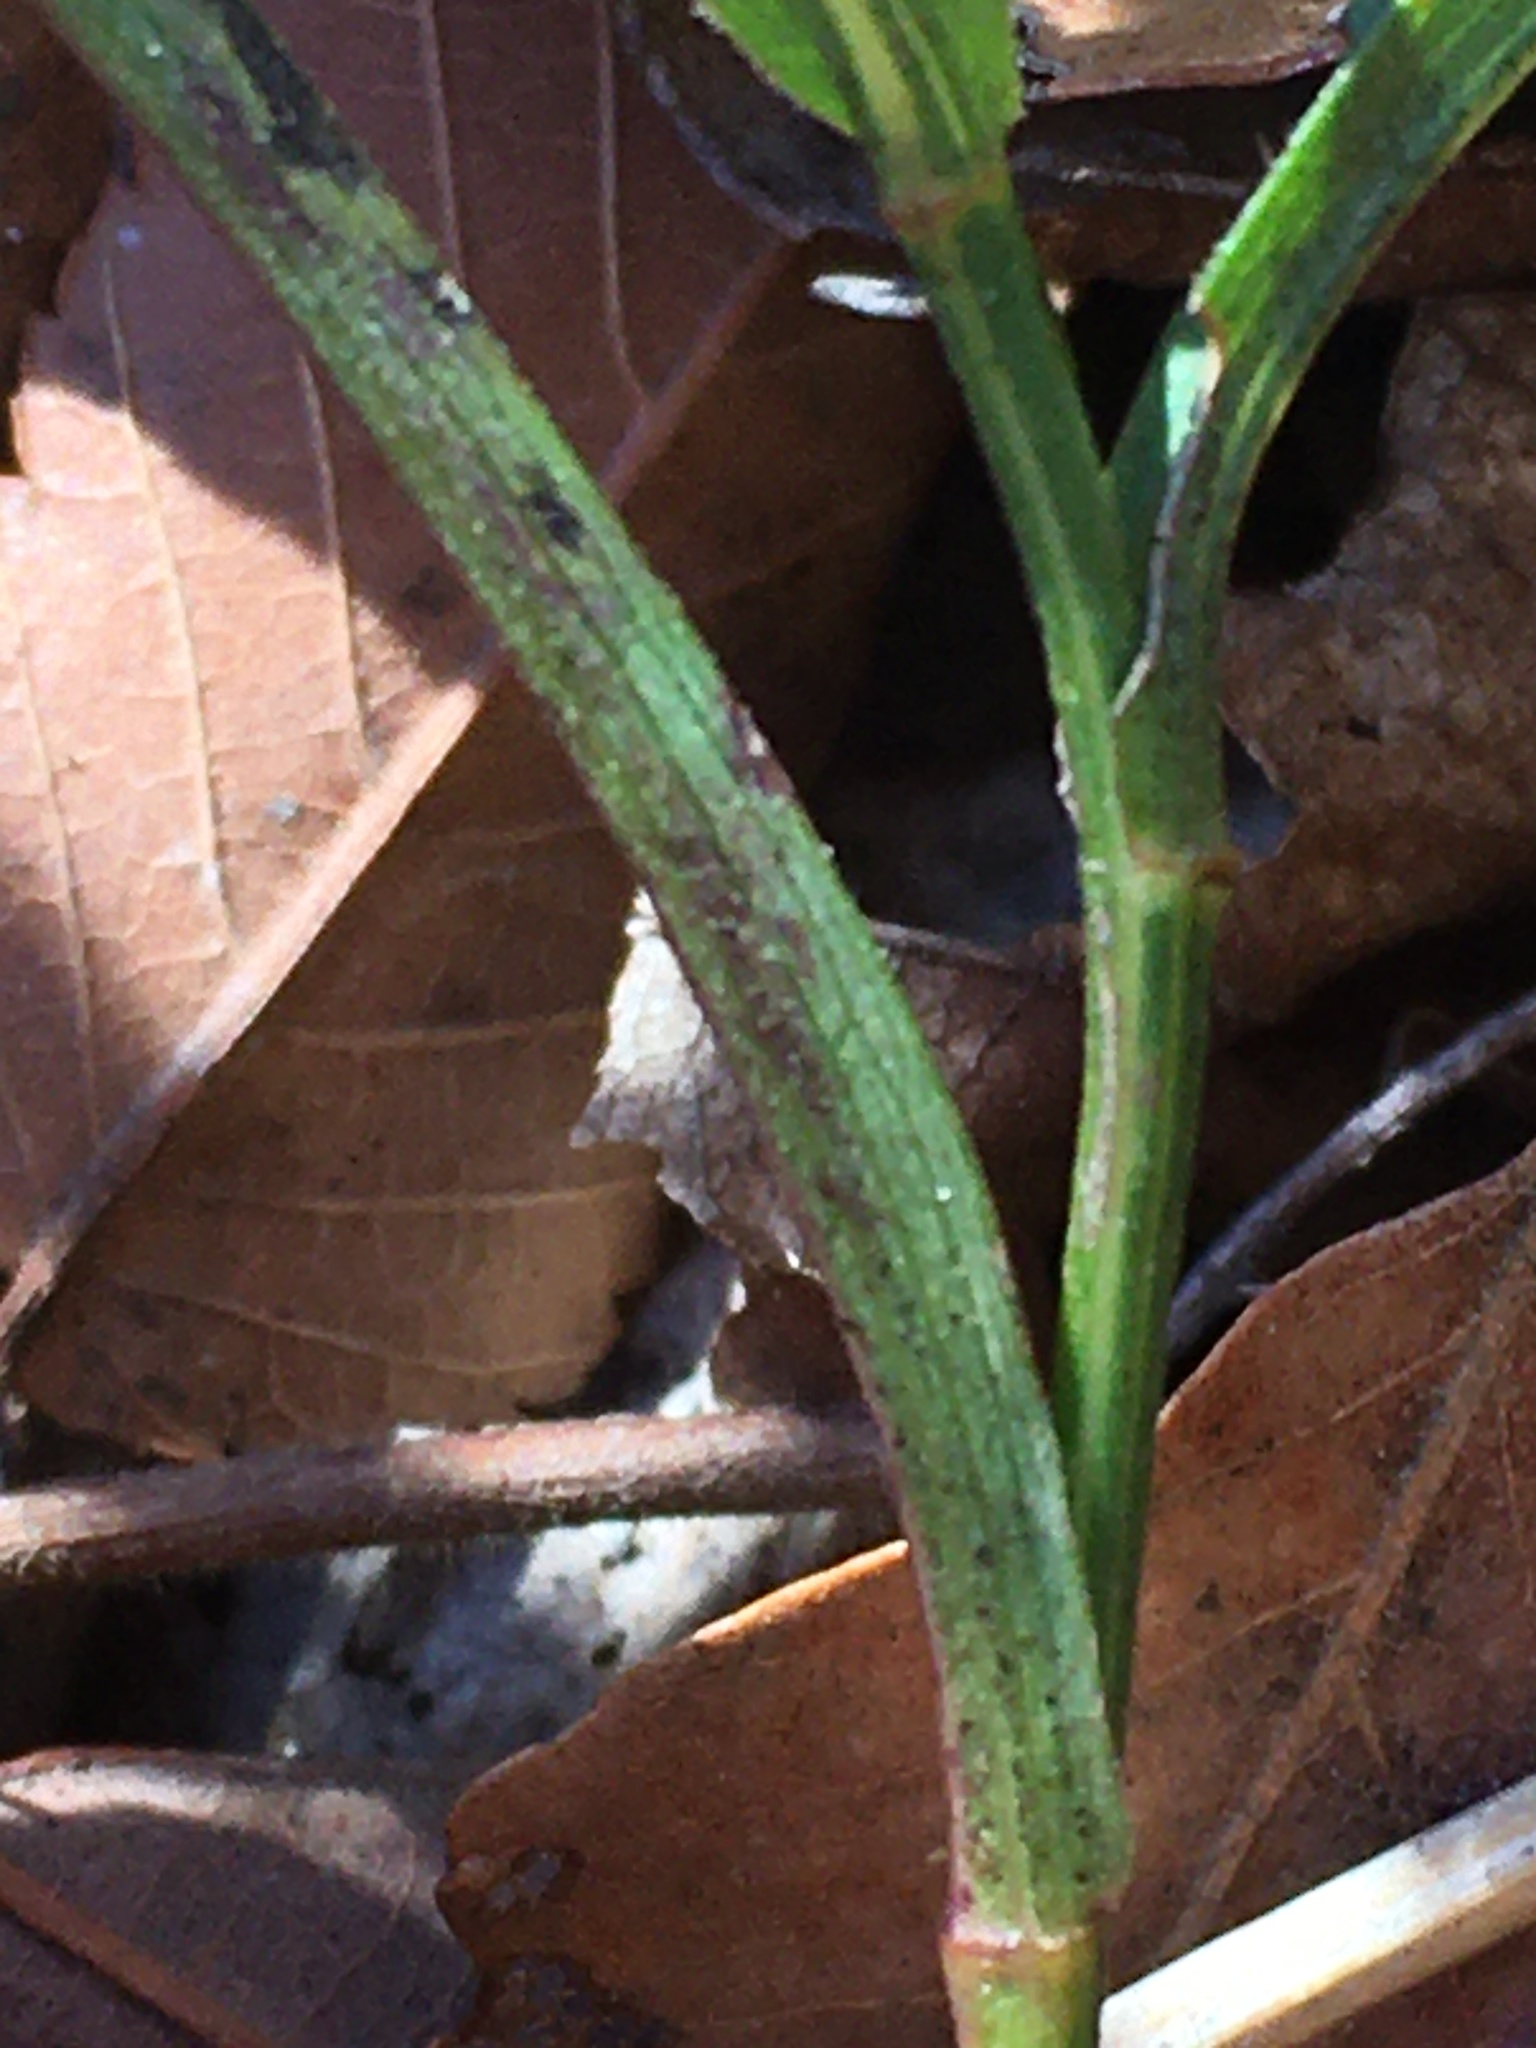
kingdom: Plantae
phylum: Tracheophyta
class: Magnoliopsida
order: Asterales
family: Asteraceae
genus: Symphyotrichum
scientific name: Symphyotrichum undulatum
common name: Clasping heart-leaf aster
